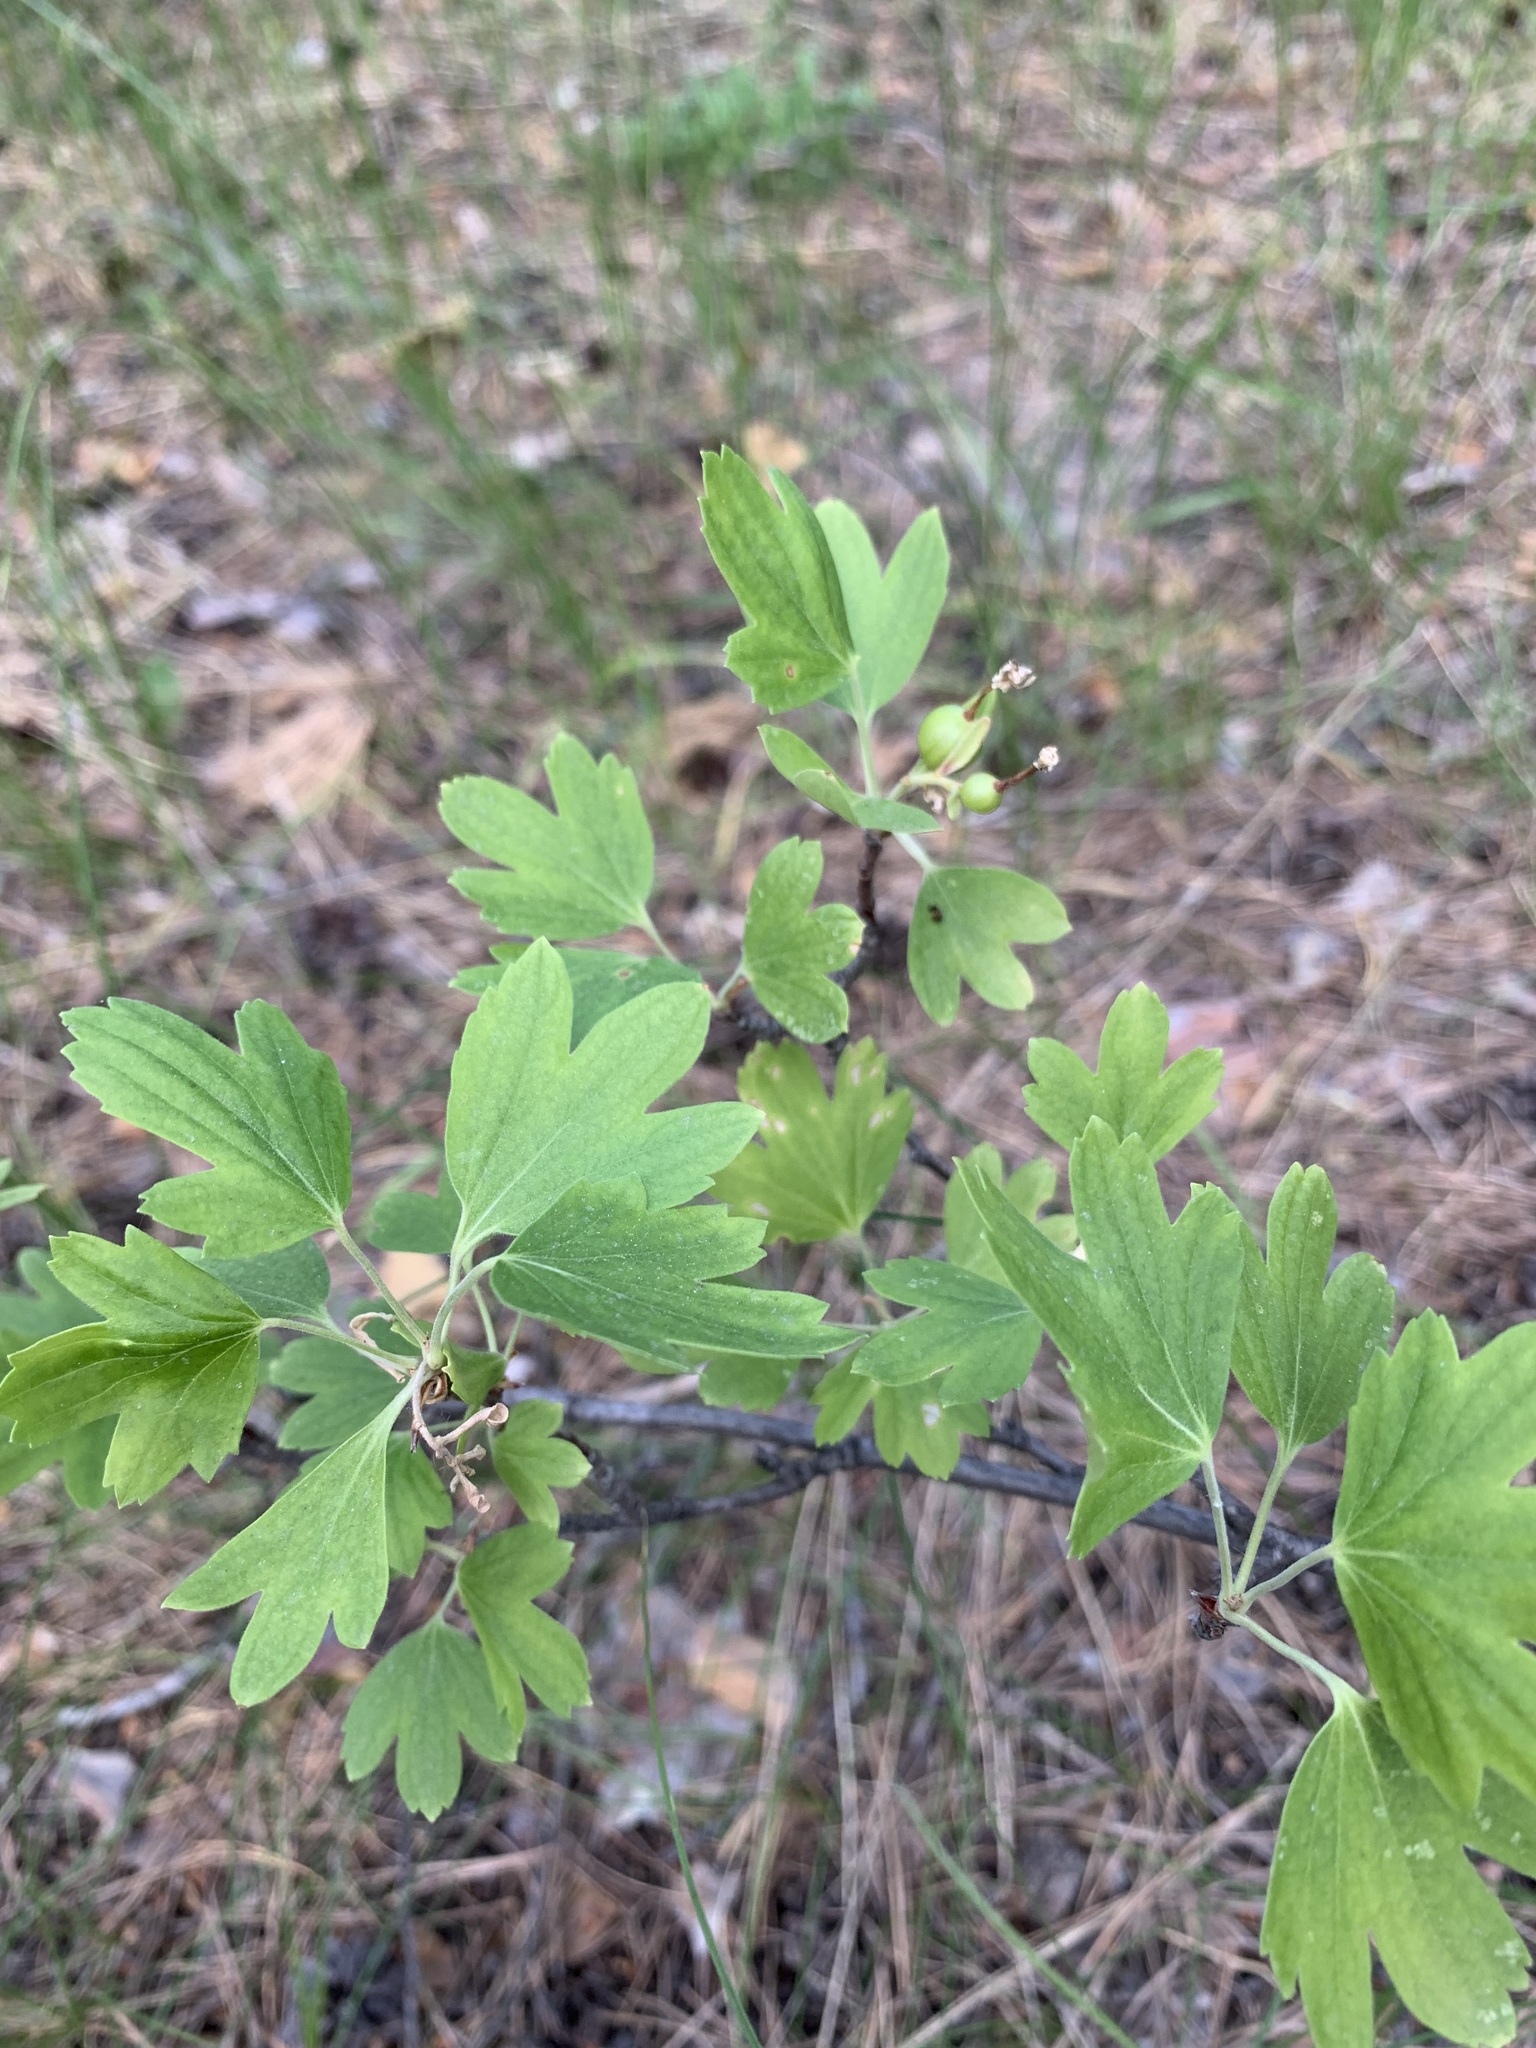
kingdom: Plantae
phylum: Tracheophyta
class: Magnoliopsida
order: Saxifragales
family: Grossulariaceae
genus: Ribes
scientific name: Ribes aureum
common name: Golden currant
